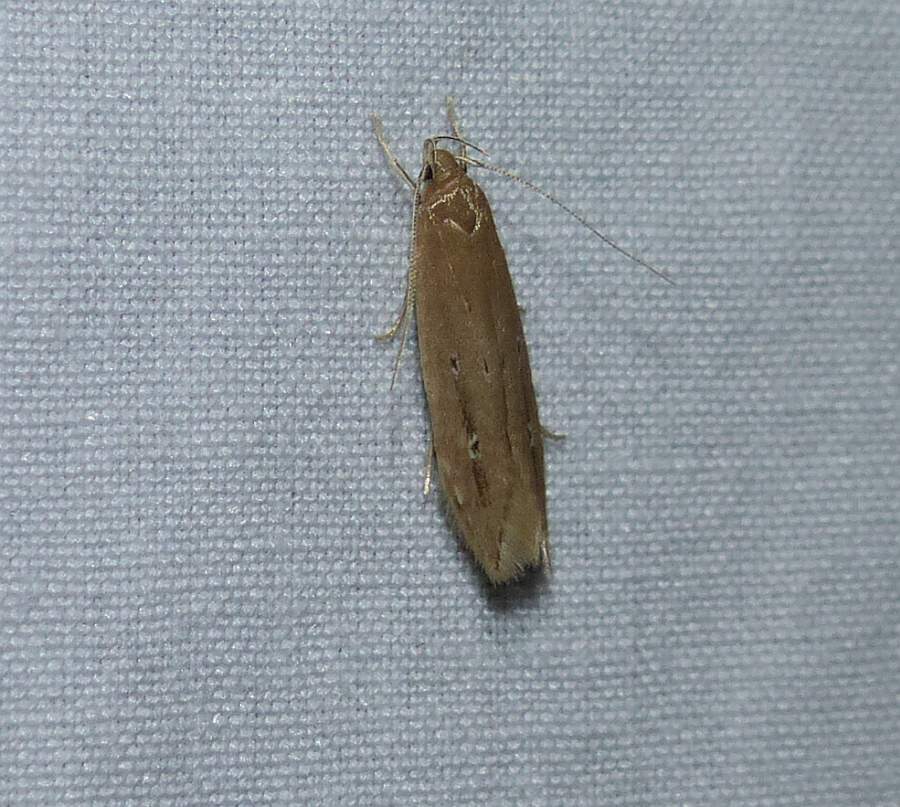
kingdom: Animalia
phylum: Arthropoda
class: Insecta
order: Lepidoptera
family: Cosmopterigidae
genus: Limnaecia
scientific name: Limnaecia phragmitella
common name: Bulrush cosmet
